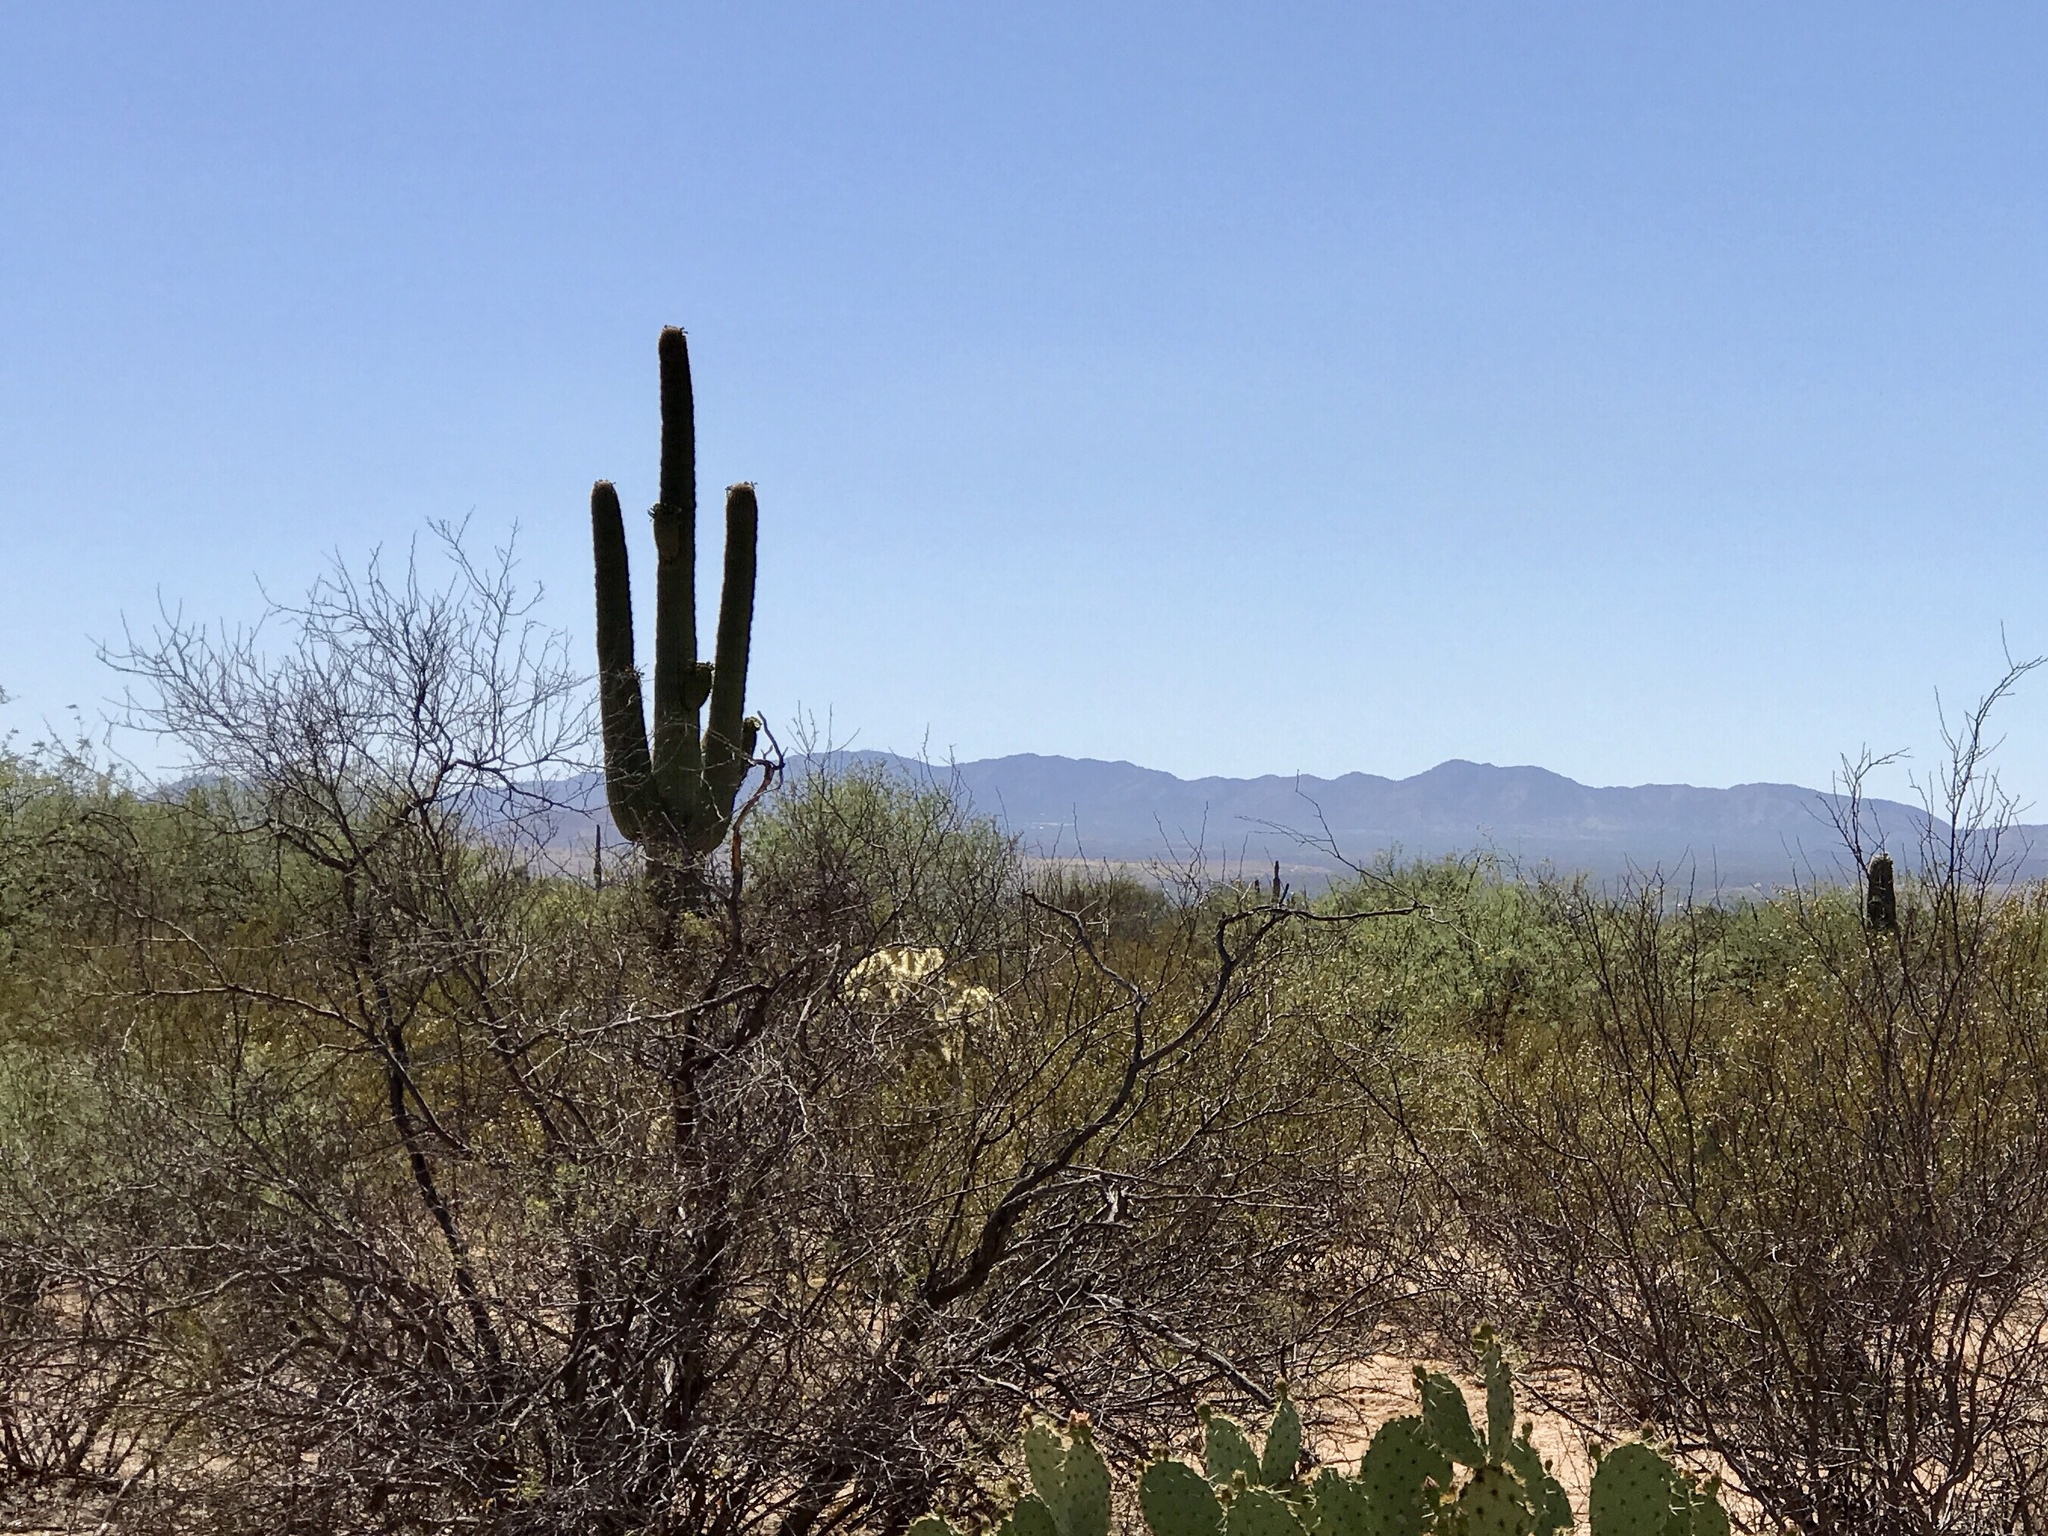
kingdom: Plantae
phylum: Tracheophyta
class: Magnoliopsida
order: Caryophyllales
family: Cactaceae
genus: Carnegiea
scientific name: Carnegiea gigantea
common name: Saguaro
